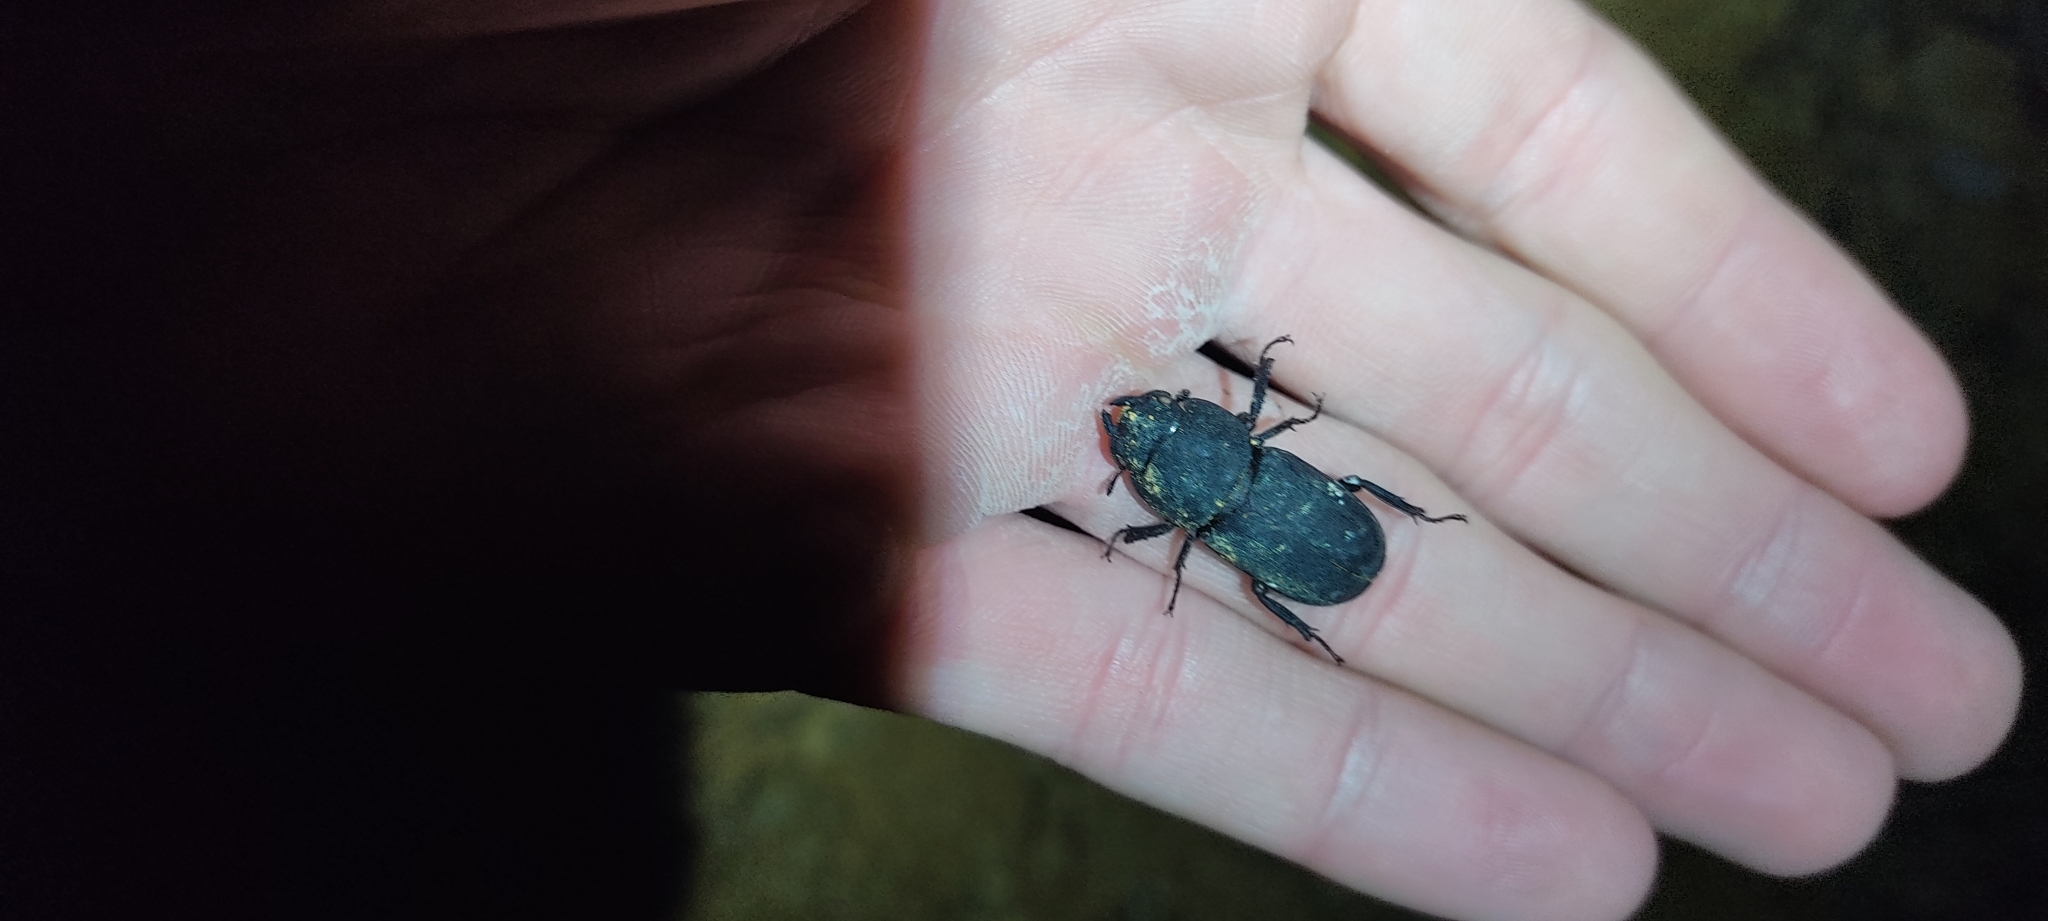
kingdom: Animalia
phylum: Arthropoda
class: Insecta
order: Coleoptera
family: Lucanidae
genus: Dorcus
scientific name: Dorcus parallelipipedus
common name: Lesser stag beetle
